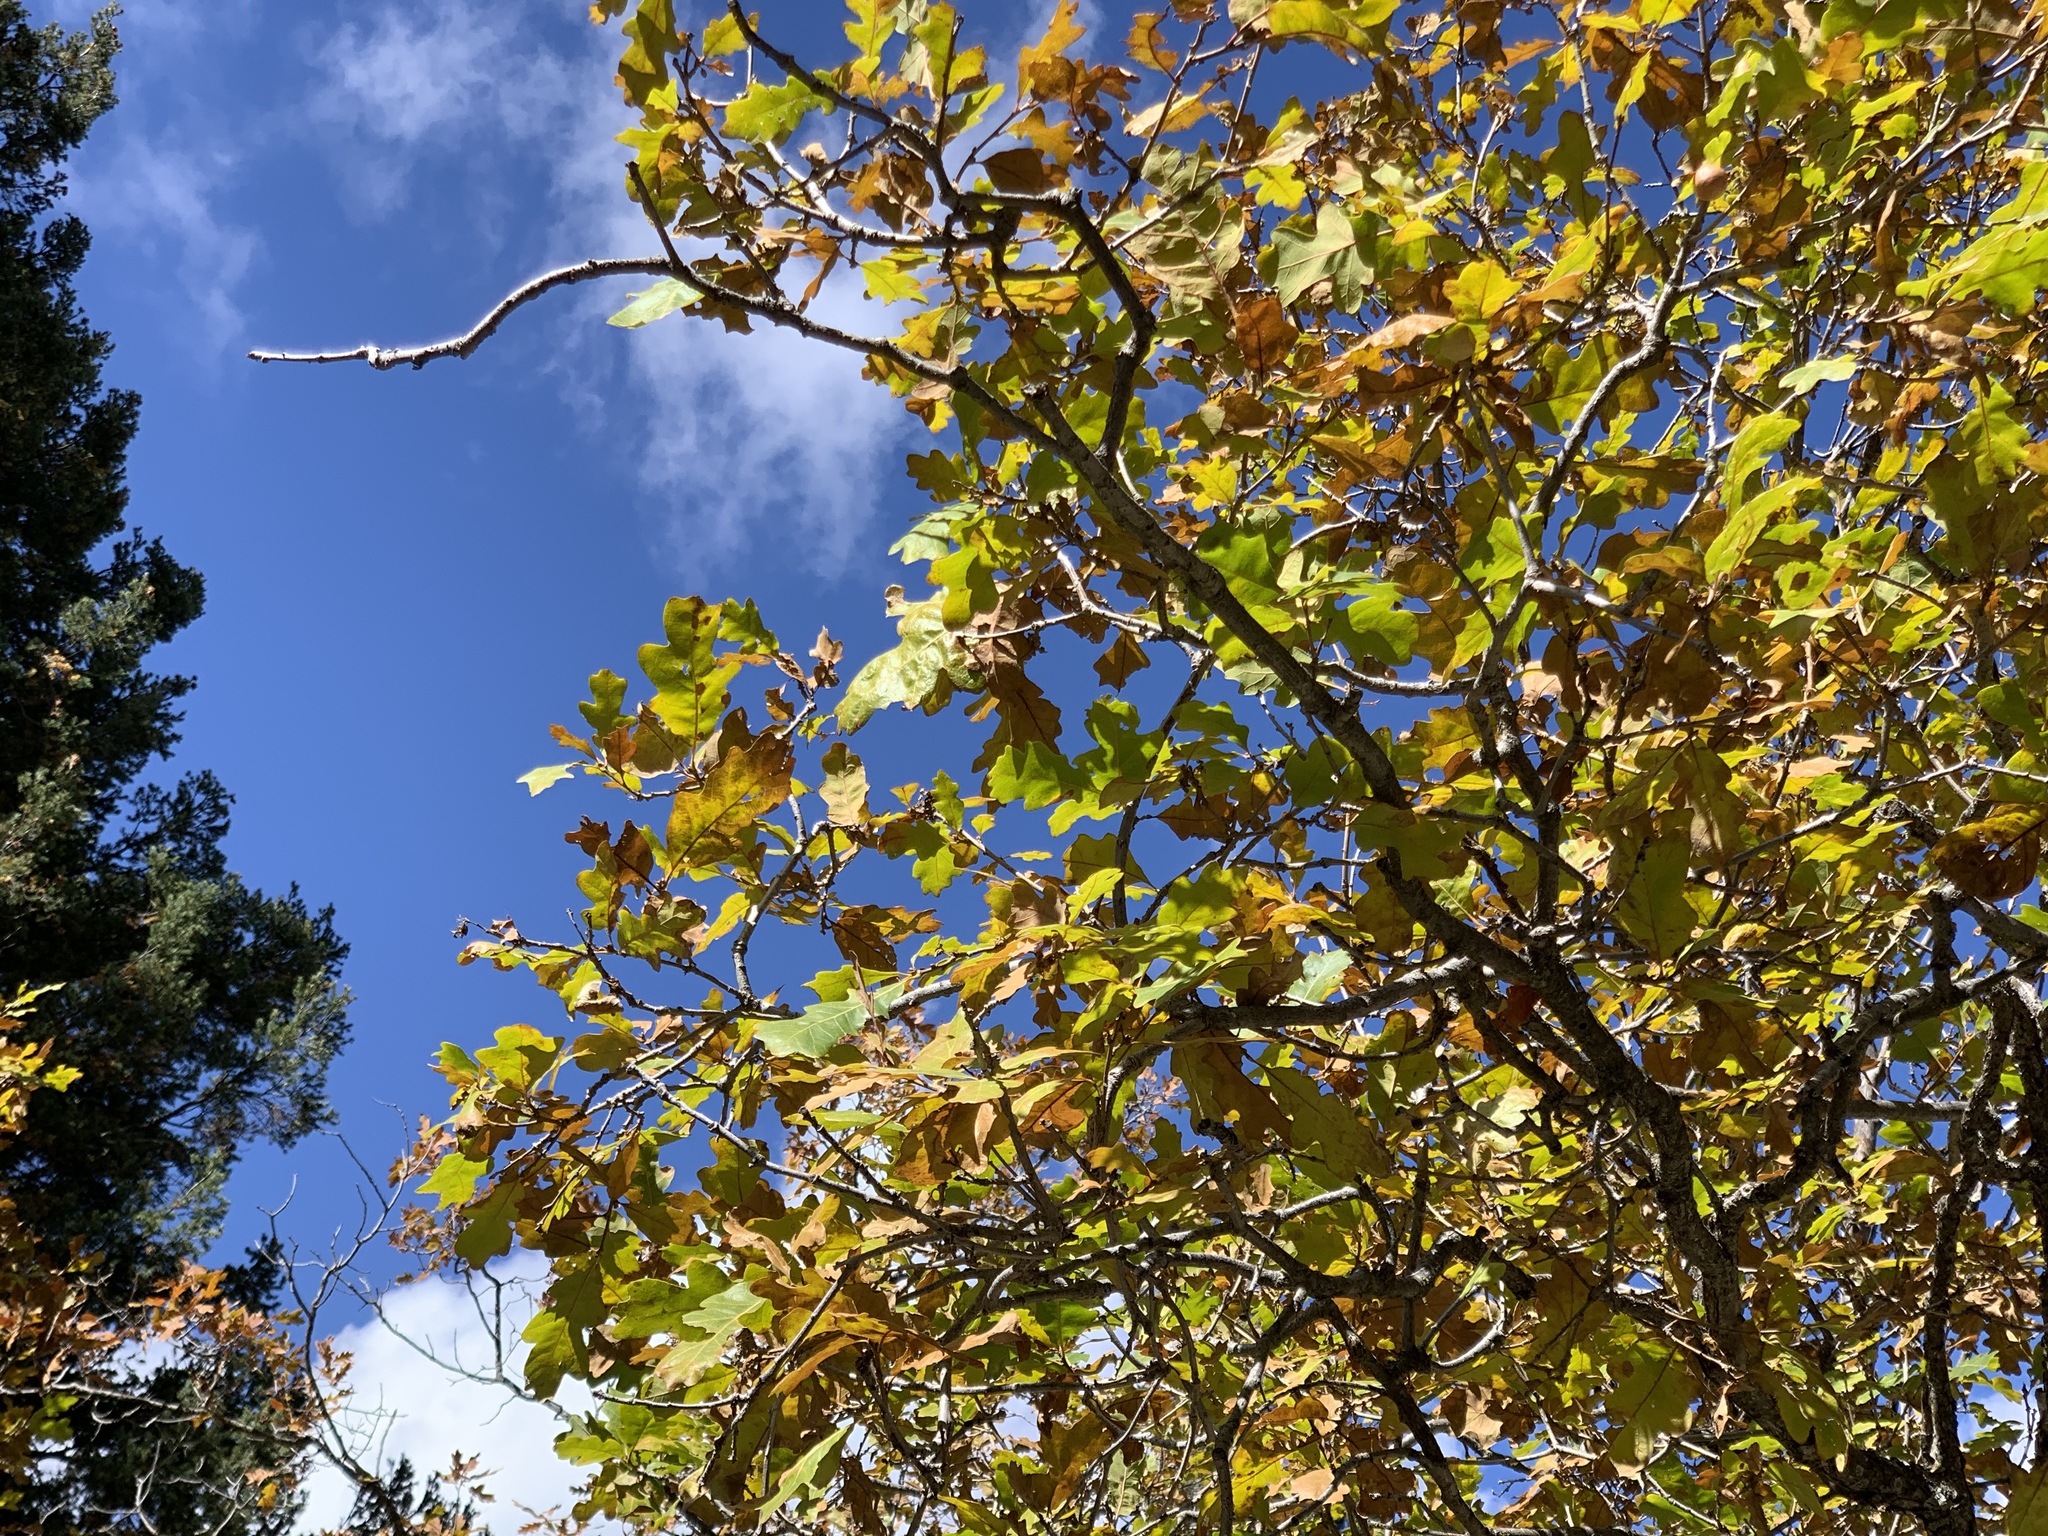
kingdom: Plantae
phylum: Tracheophyta
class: Magnoliopsida
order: Fagales
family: Fagaceae
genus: Quercus
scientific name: Quercus gambelii
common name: Gambel oak
